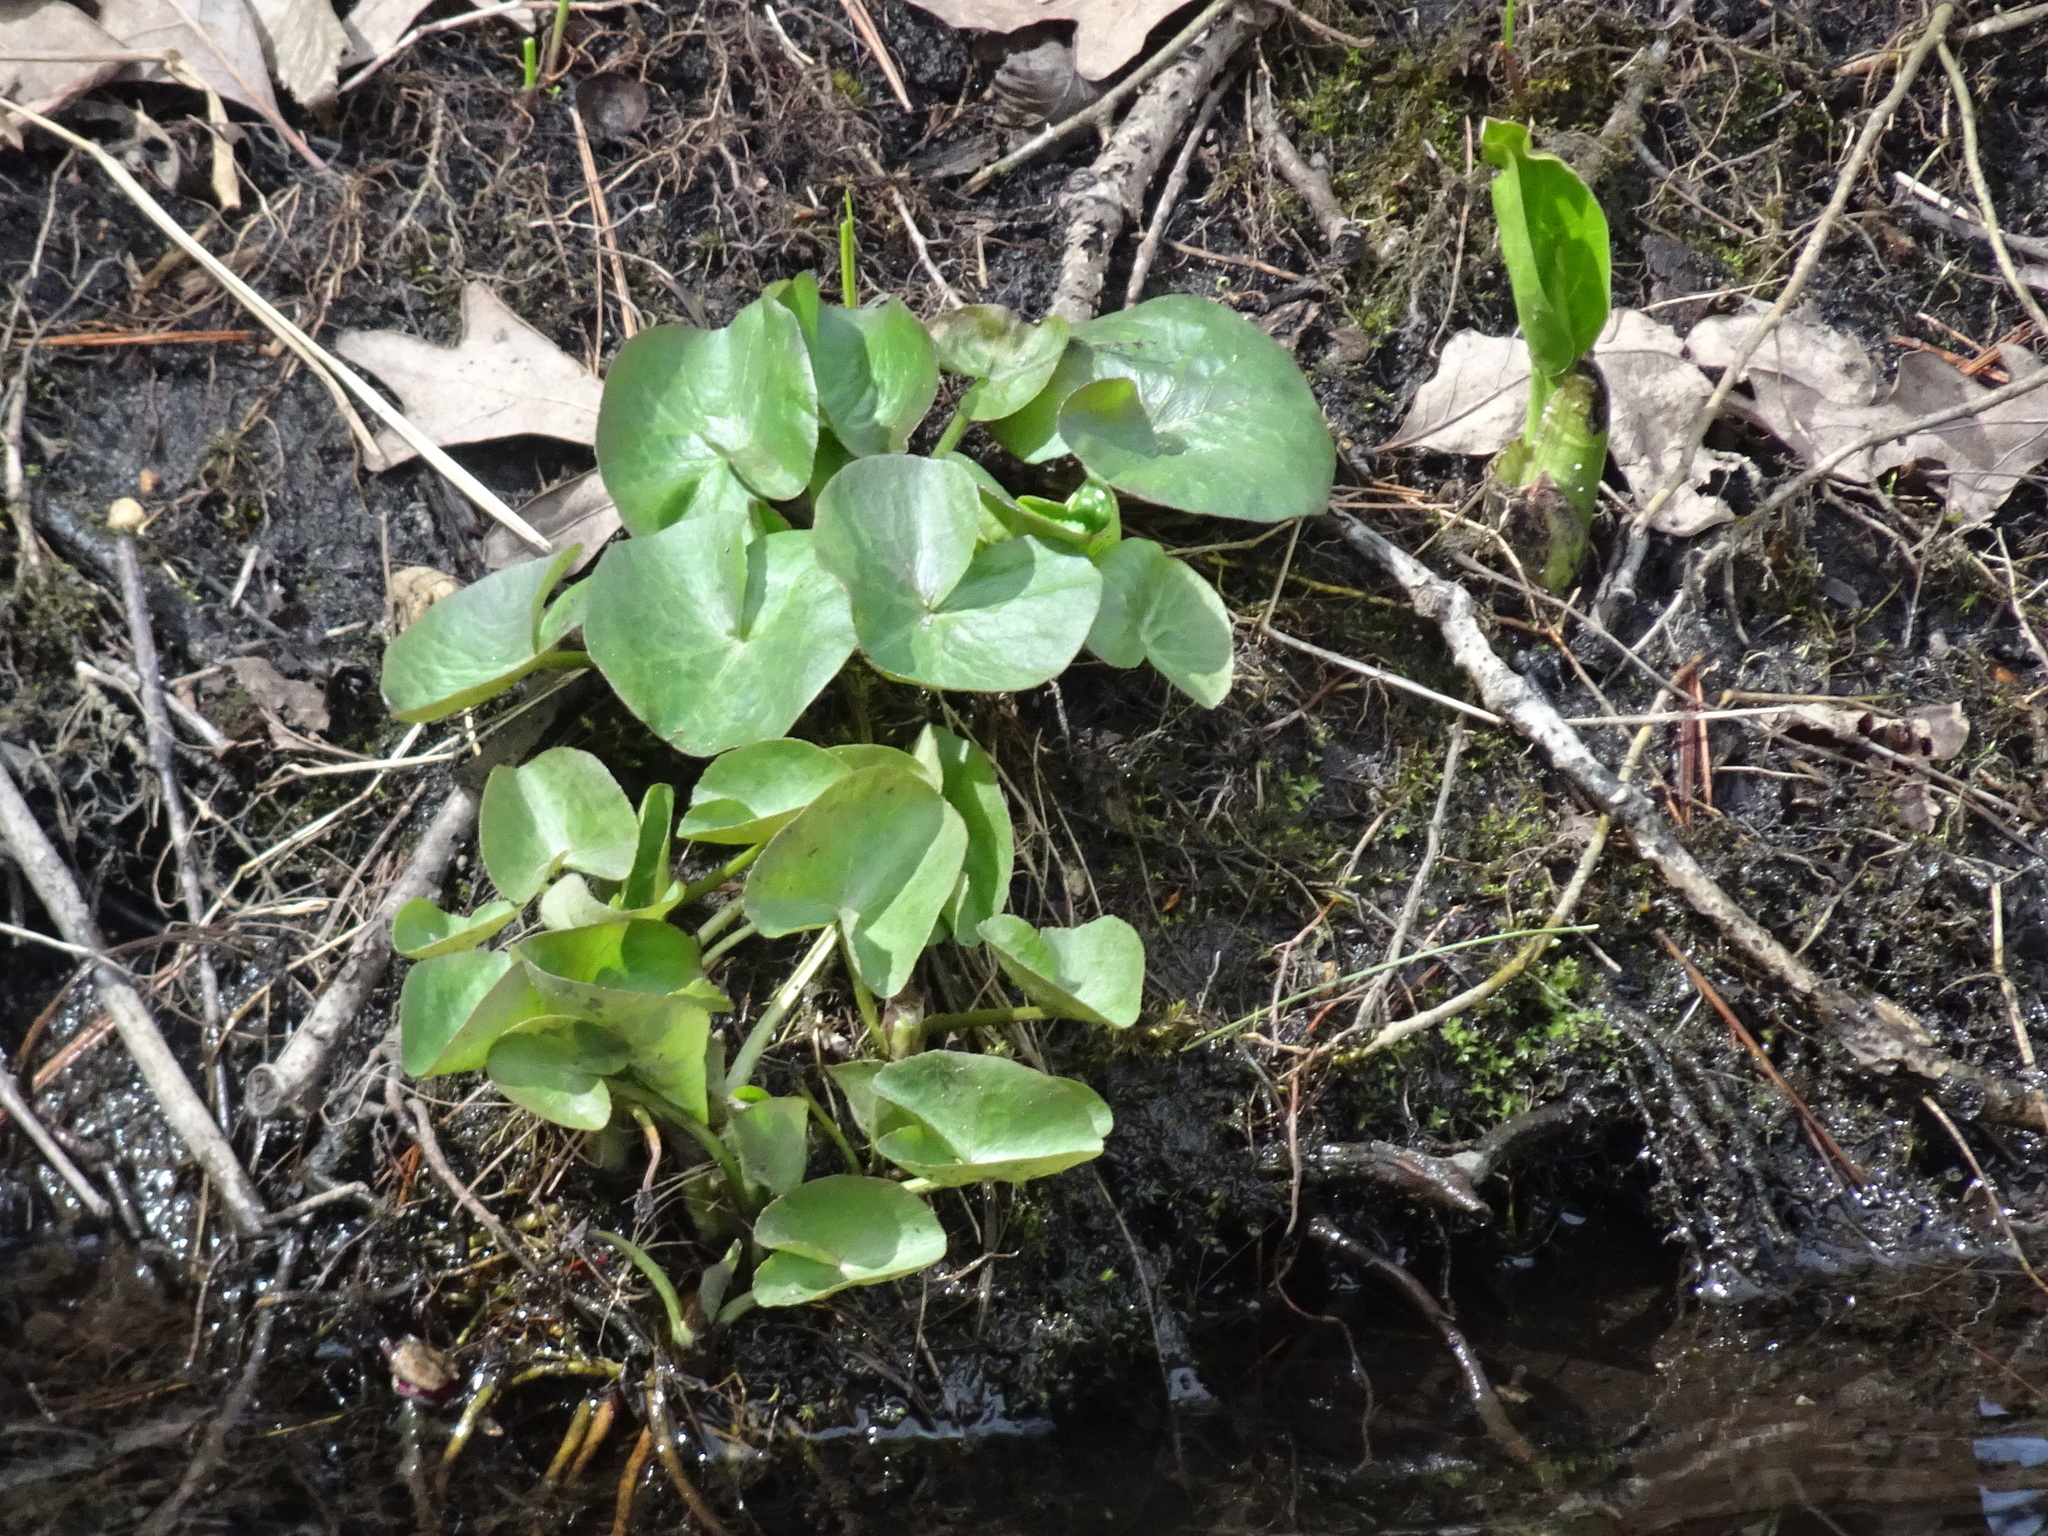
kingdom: Plantae
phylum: Tracheophyta
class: Magnoliopsida
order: Ranunculales
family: Ranunculaceae
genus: Caltha
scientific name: Caltha palustris
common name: Marsh marigold
